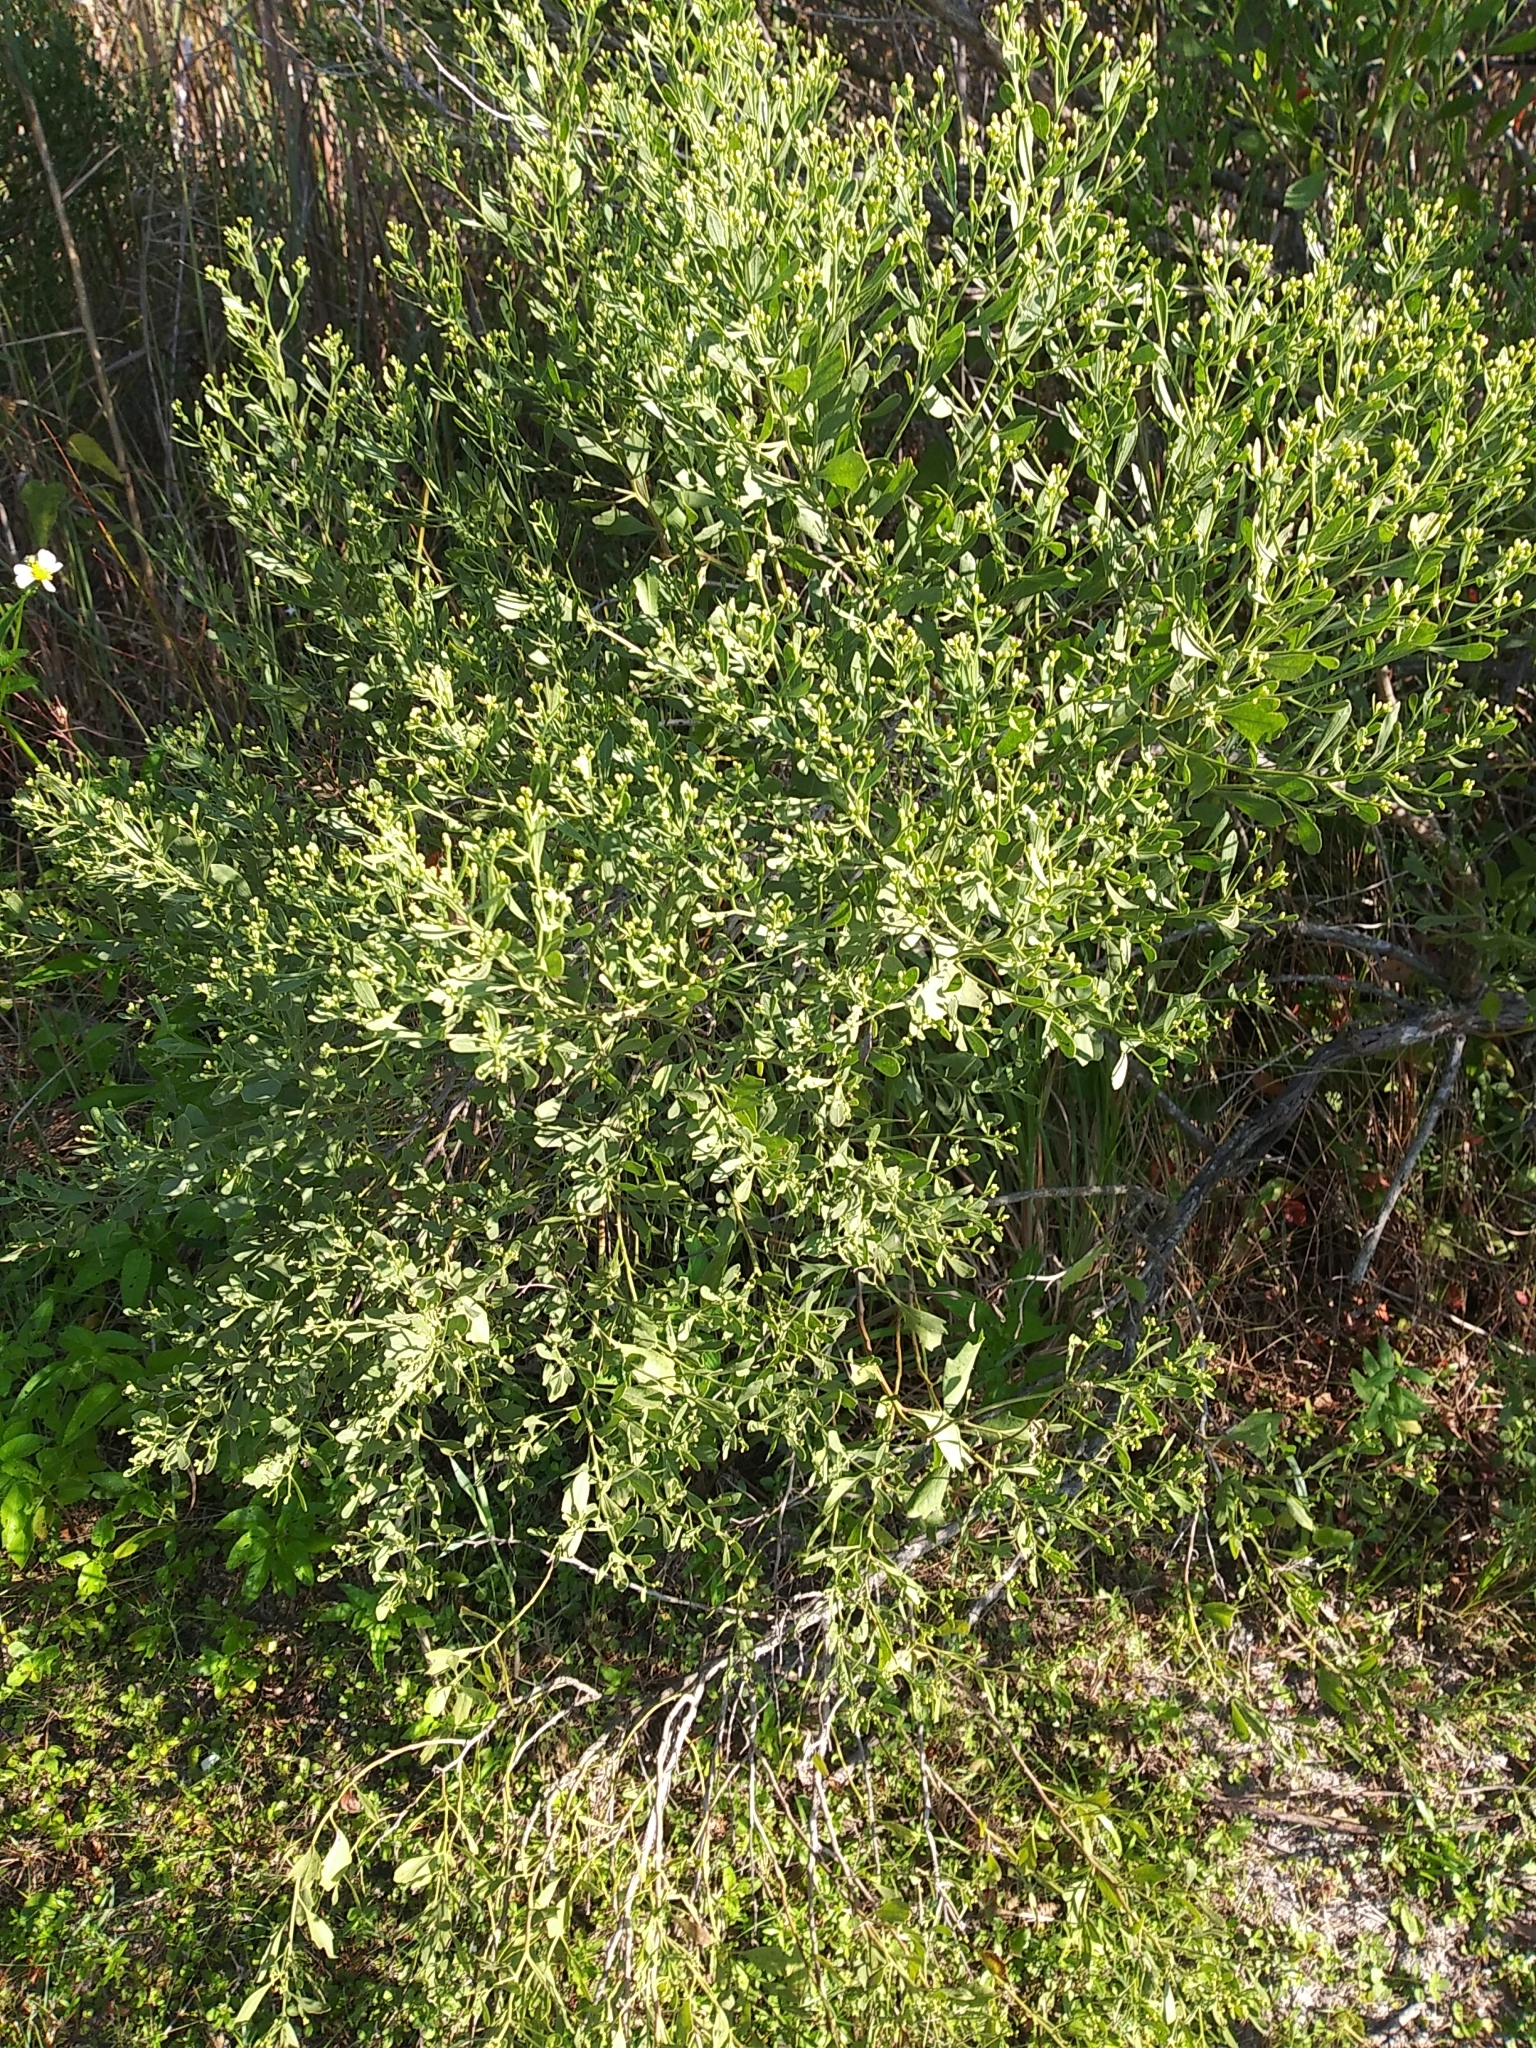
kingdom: Plantae
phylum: Tracheophyta
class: Magnoliopsida
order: Asterales
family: Asteraceae
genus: Baccharis
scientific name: Baccharis halimifolia
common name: Eastern baccharis
